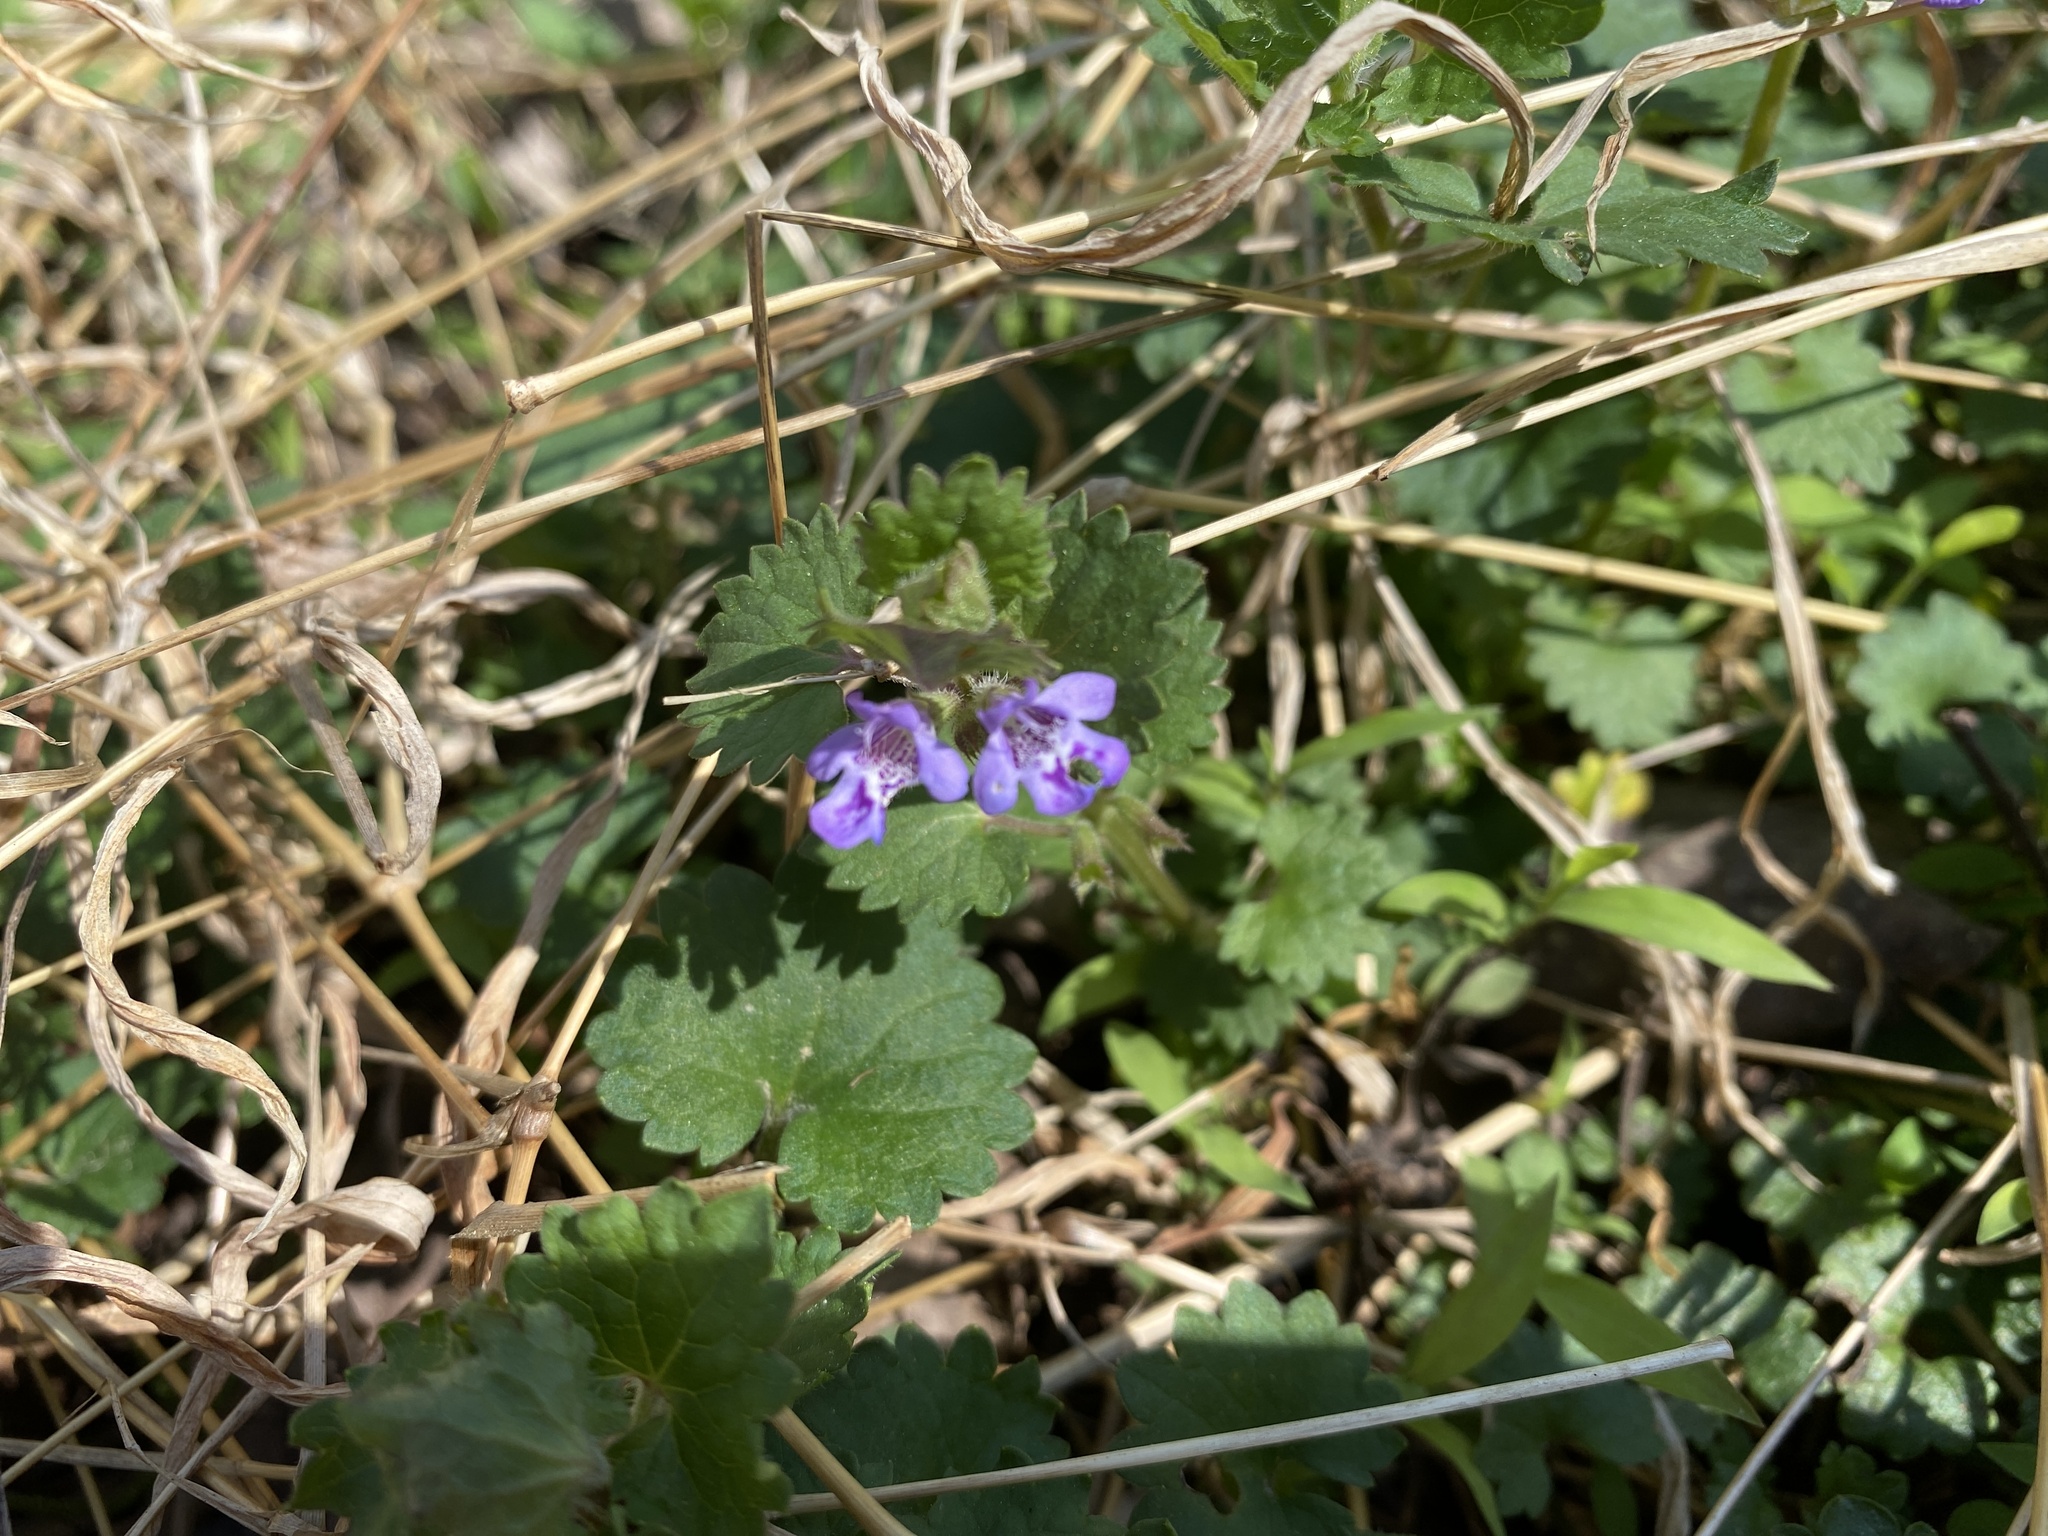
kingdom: Plantae
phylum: Tracheophyta
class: Magnoliopsida
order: Lamiales
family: Lamiaceae
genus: Glechoma
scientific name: Glechoma hederacea
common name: Ground ivy
